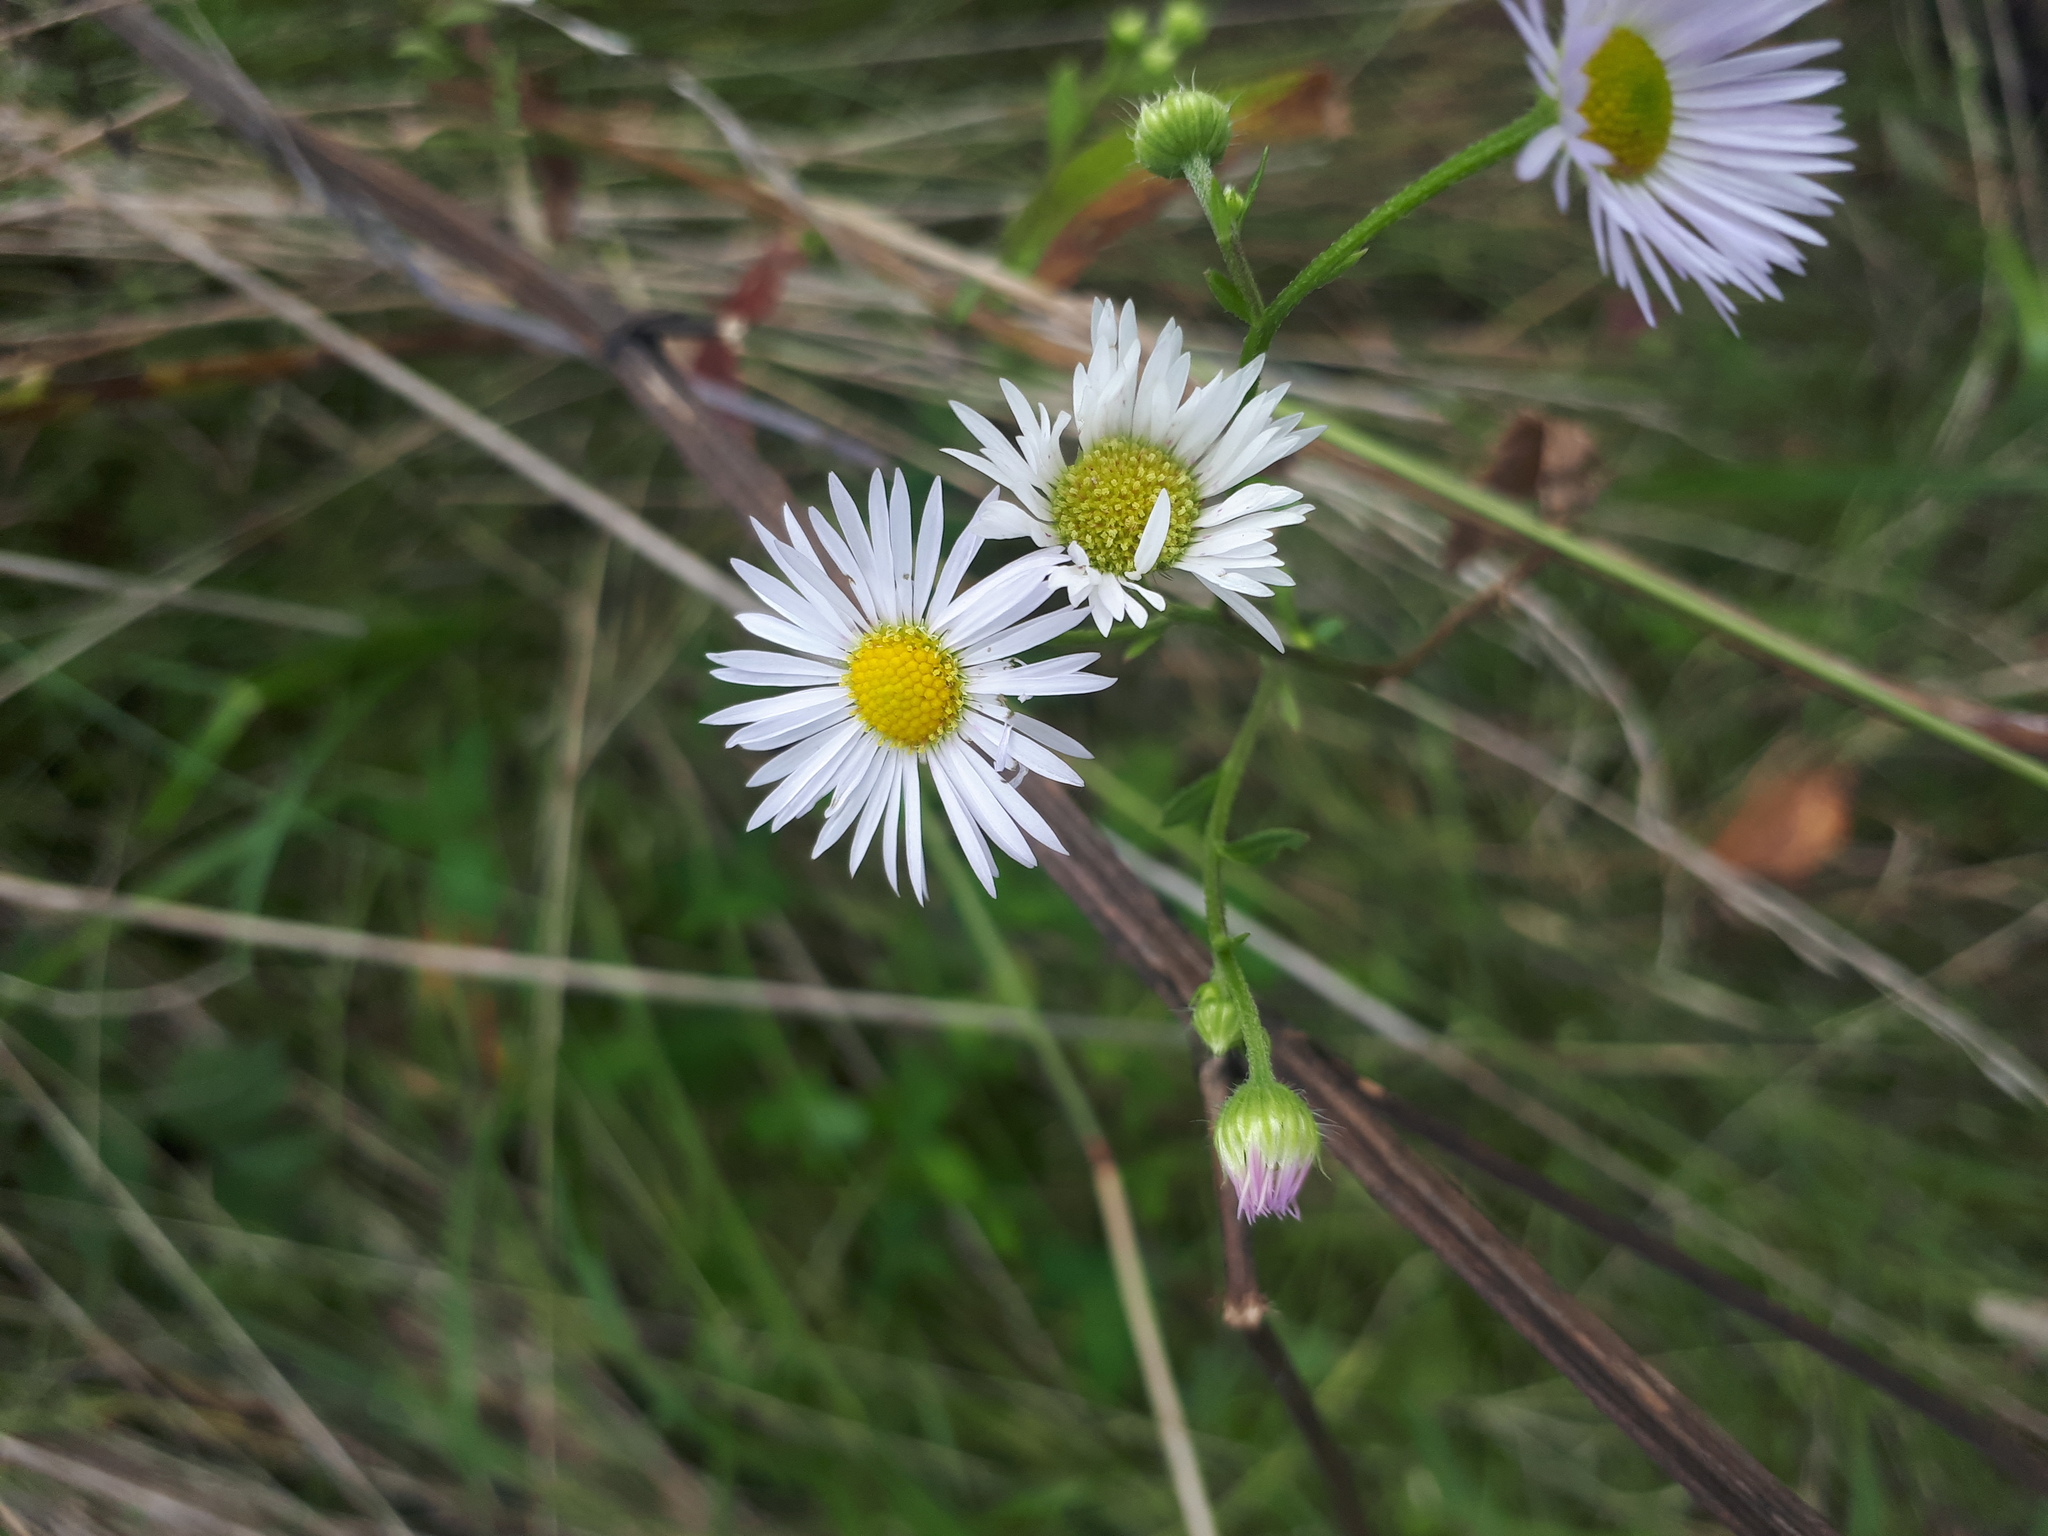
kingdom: Plantae
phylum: Tracheophyta
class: Magnoliopsida
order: Asterales
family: Asteraceae
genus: Erigeron
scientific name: Erigeron annuus
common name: Tall fleabane
